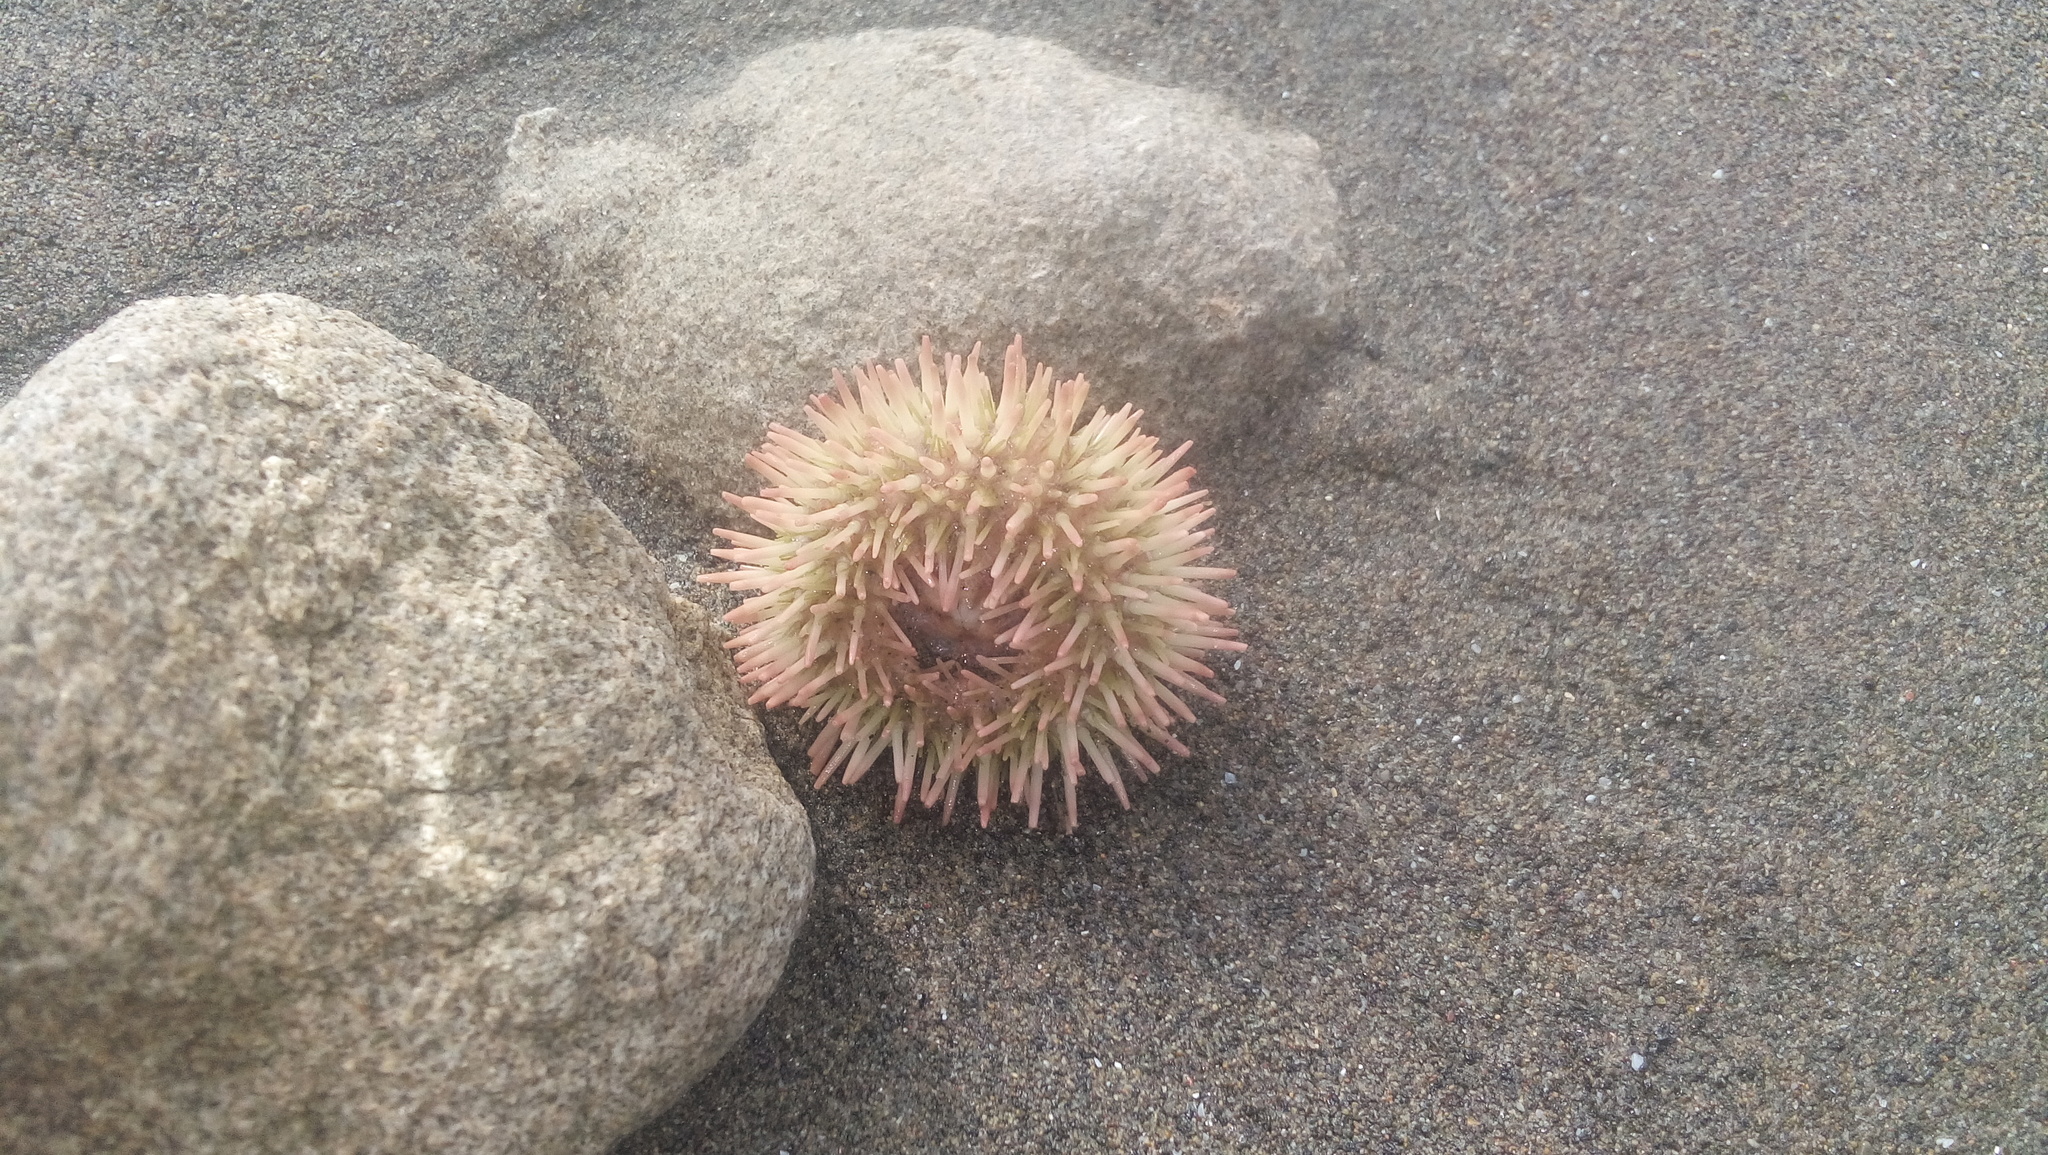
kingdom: Animalia
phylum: Echinodermata
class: Echinoidea
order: Camarodonta
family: Toxopneustidae
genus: Lytechinus
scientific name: Lytechinus variegatus
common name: Variegated urchin
